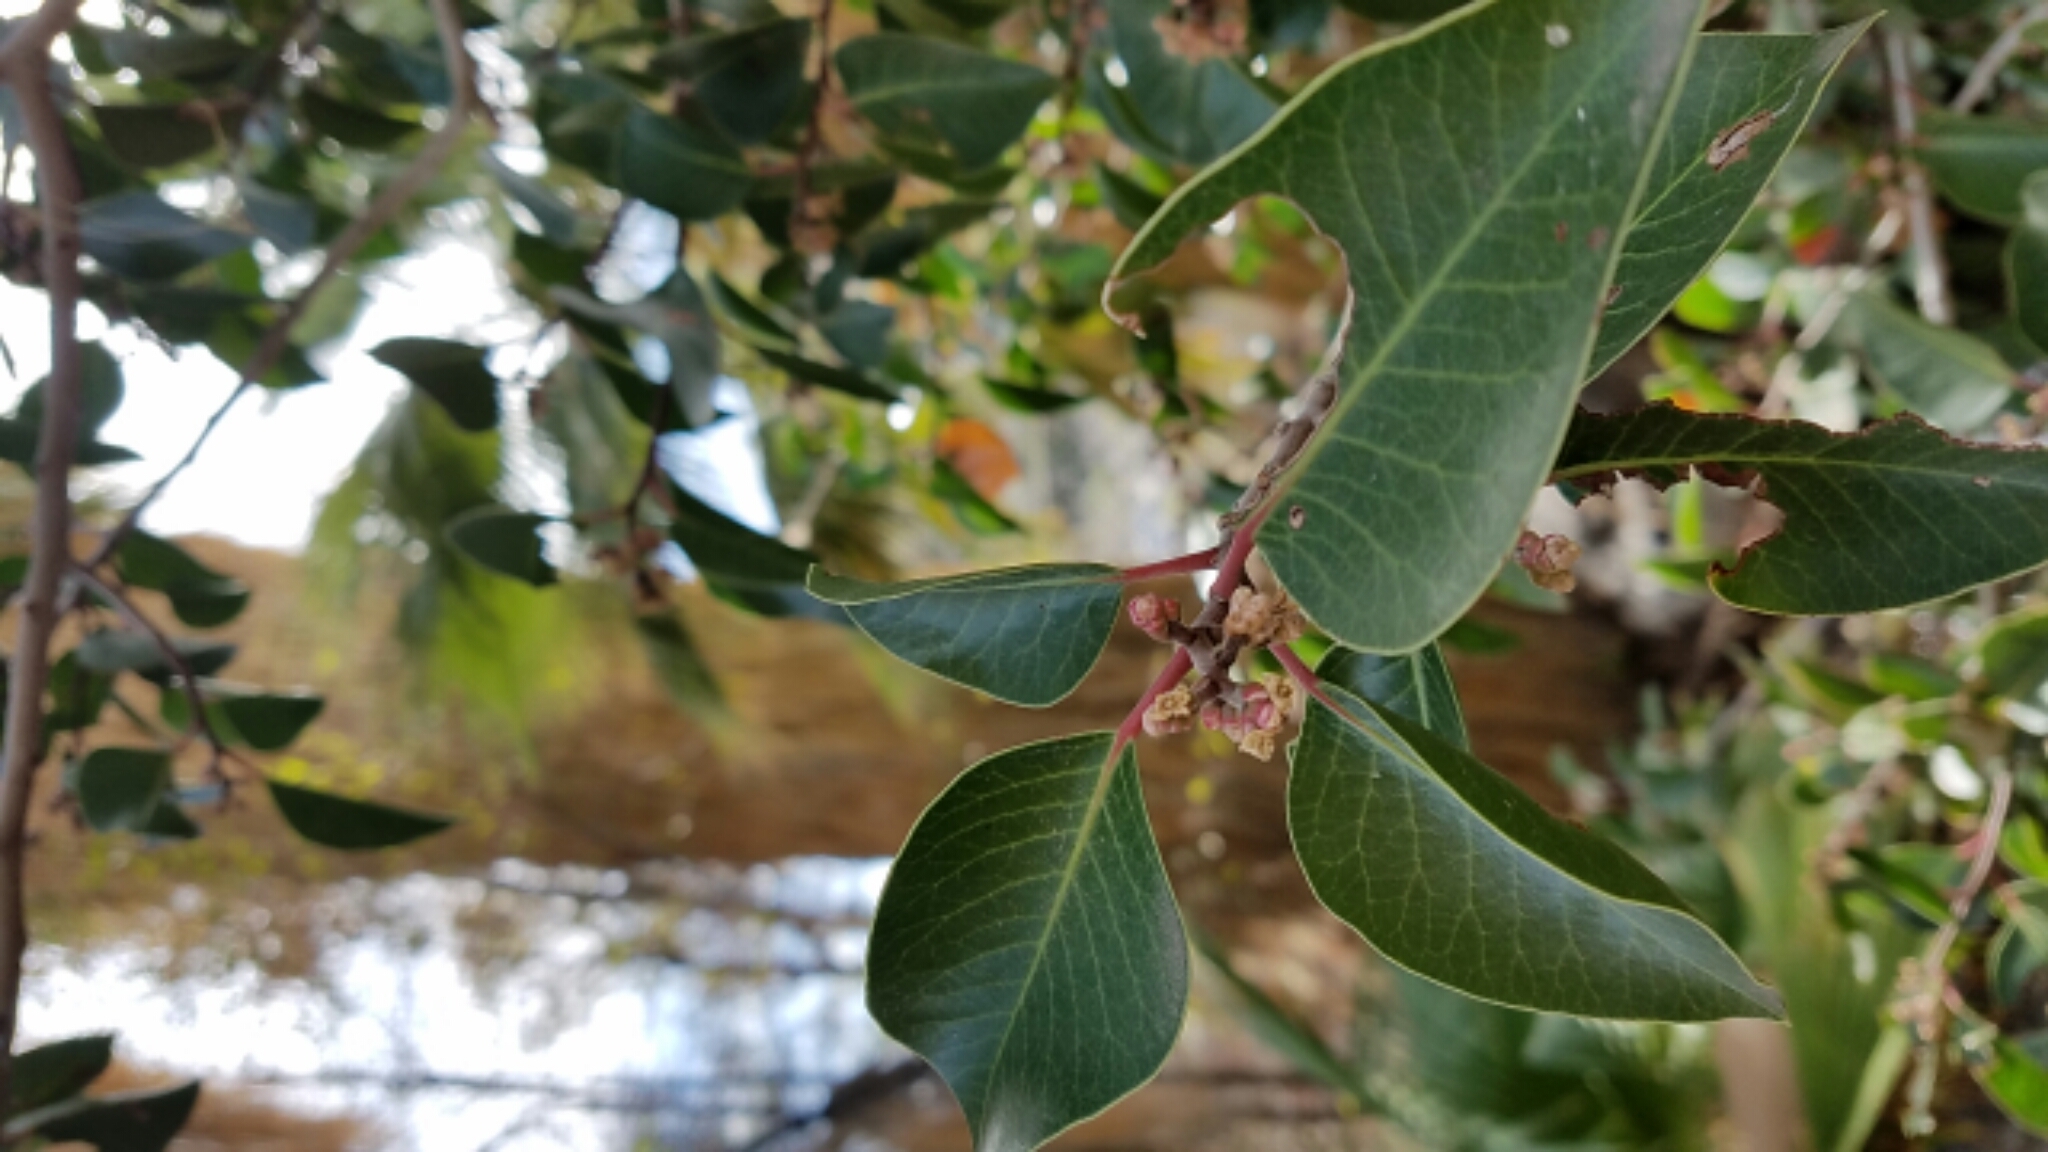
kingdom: Plantae
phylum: Tracheophyta
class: Magnoliopsida
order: Sapindales
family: Anacardiaceae
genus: Rhus
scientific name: Rhus ovata
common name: Sugar sumac
